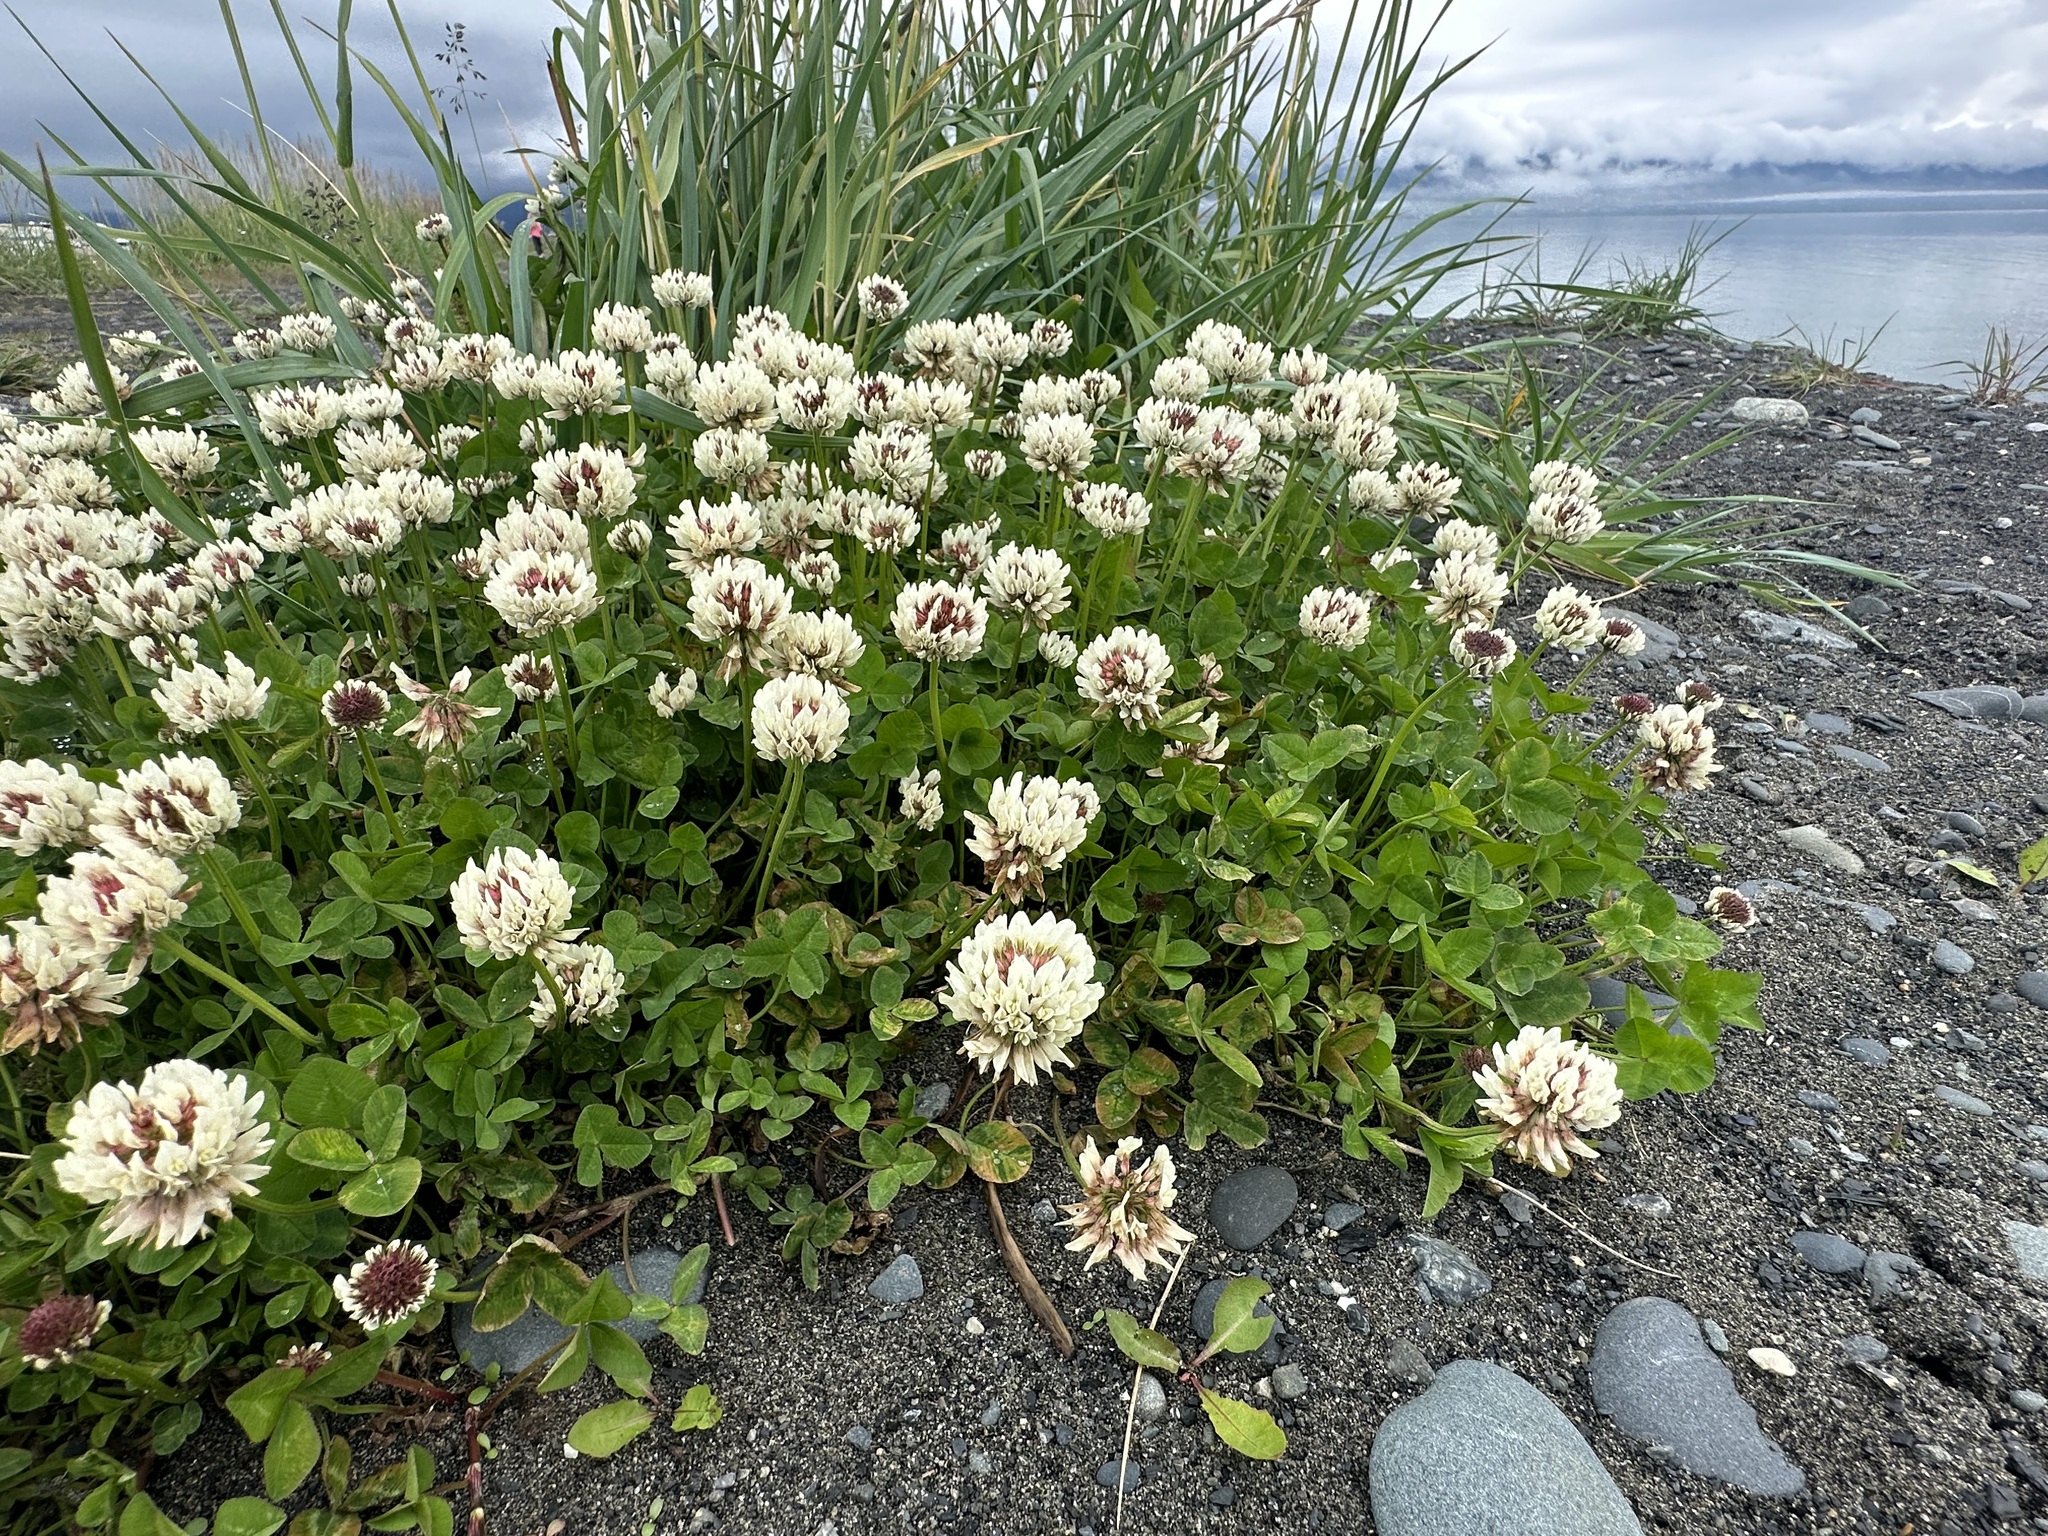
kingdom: Plantae
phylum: Tracheophyta
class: Magnoliopsida
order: Fabales
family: Fabaceae
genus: Trifolium
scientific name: Trifolium repens
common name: White clover
